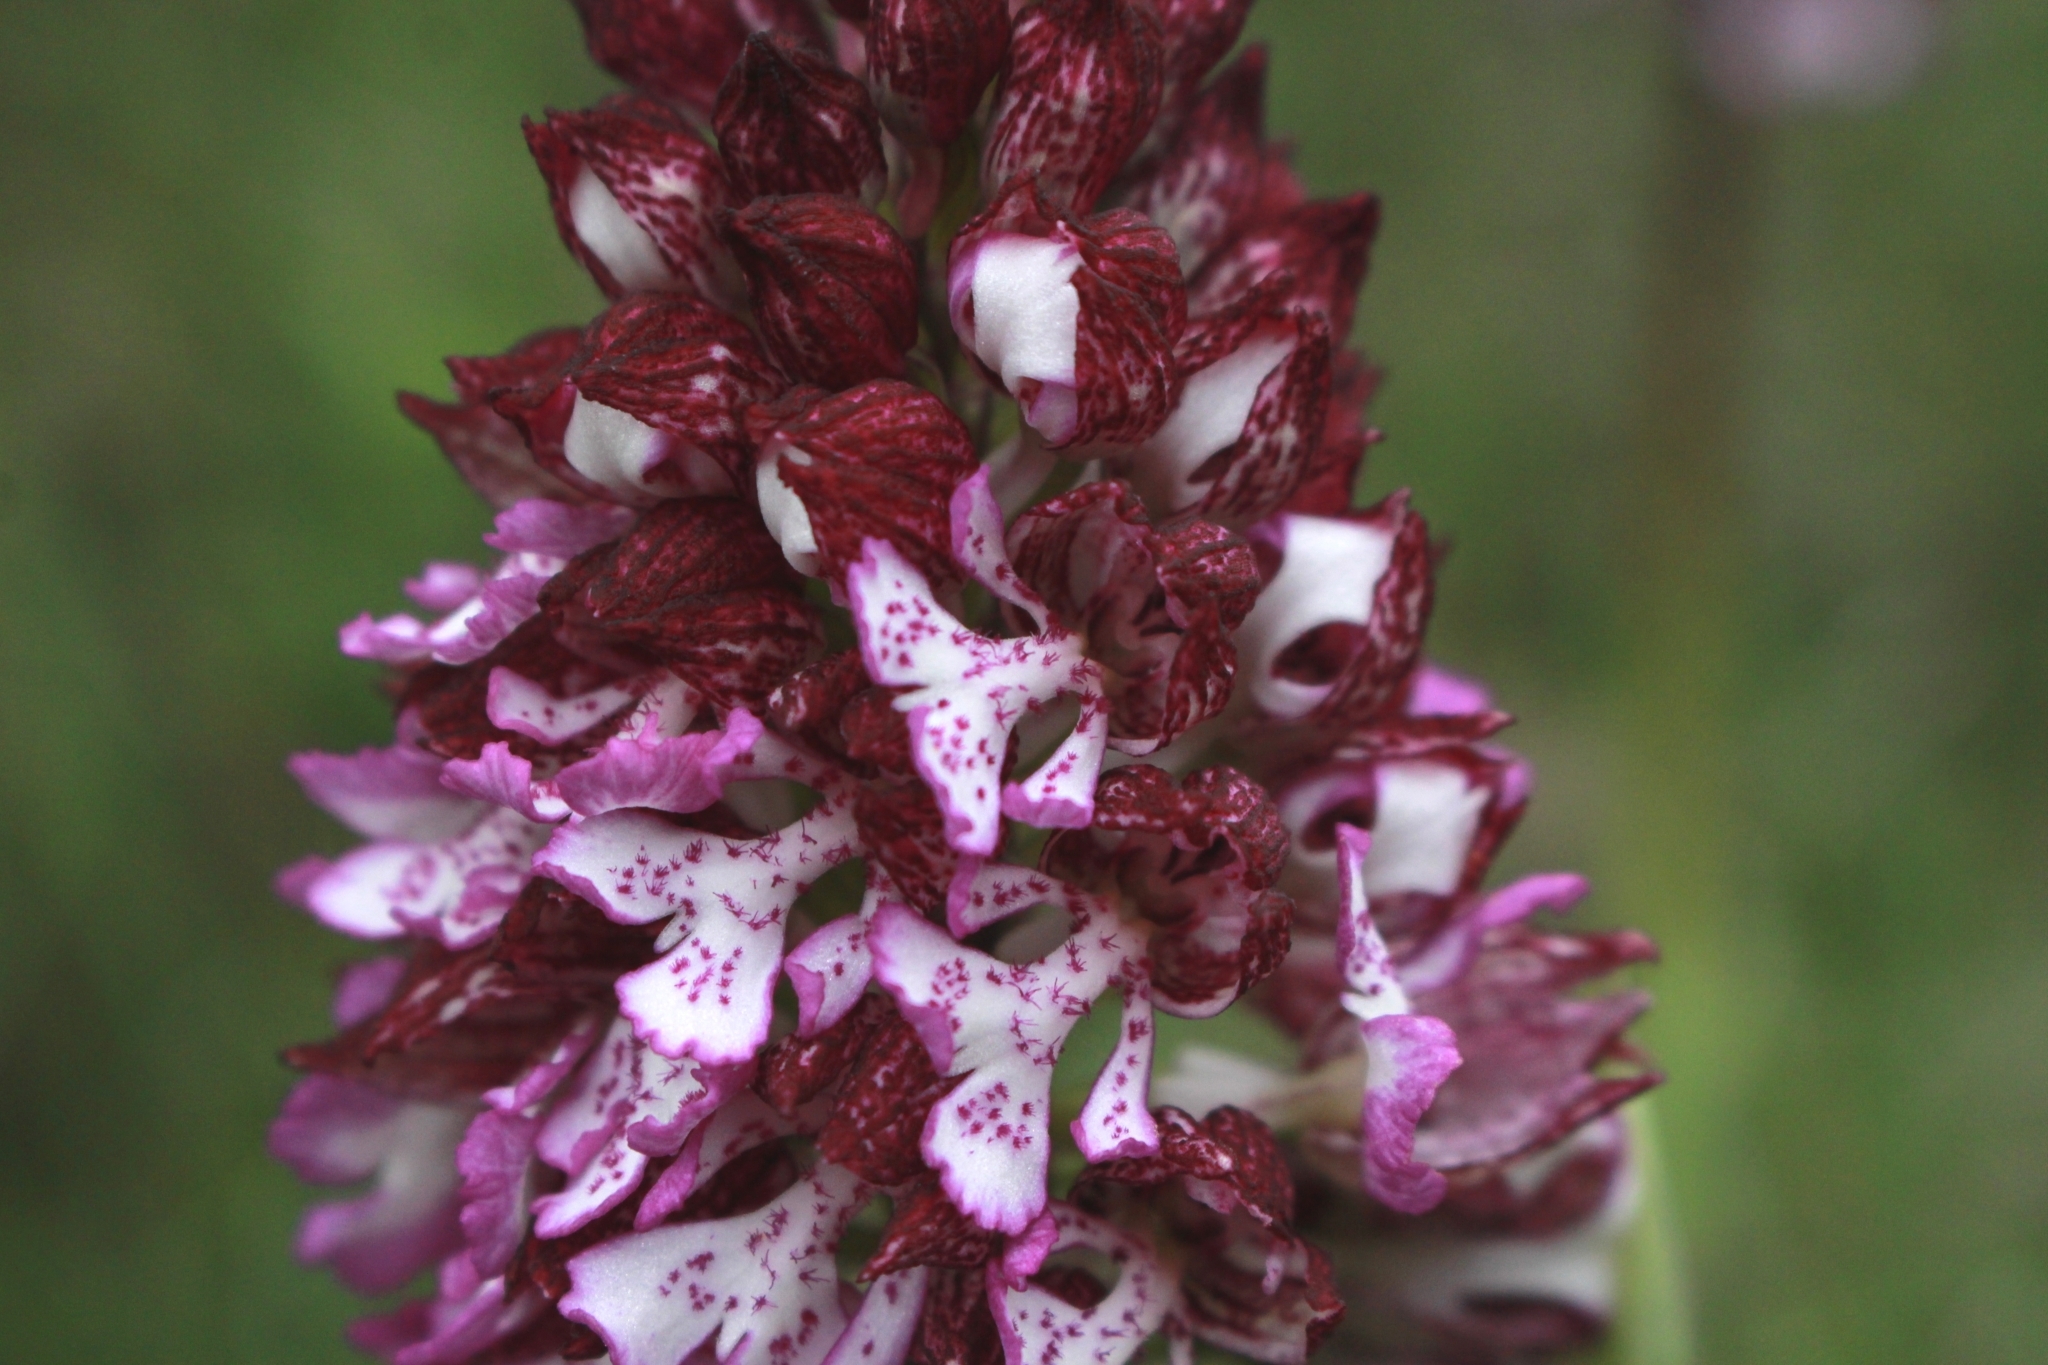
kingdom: Plantae
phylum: Tracheophyta
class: Liliopsida
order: Asparagales
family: Orchidaceae
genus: Orchis
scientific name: Orchis purpurea
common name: Lady orchid
